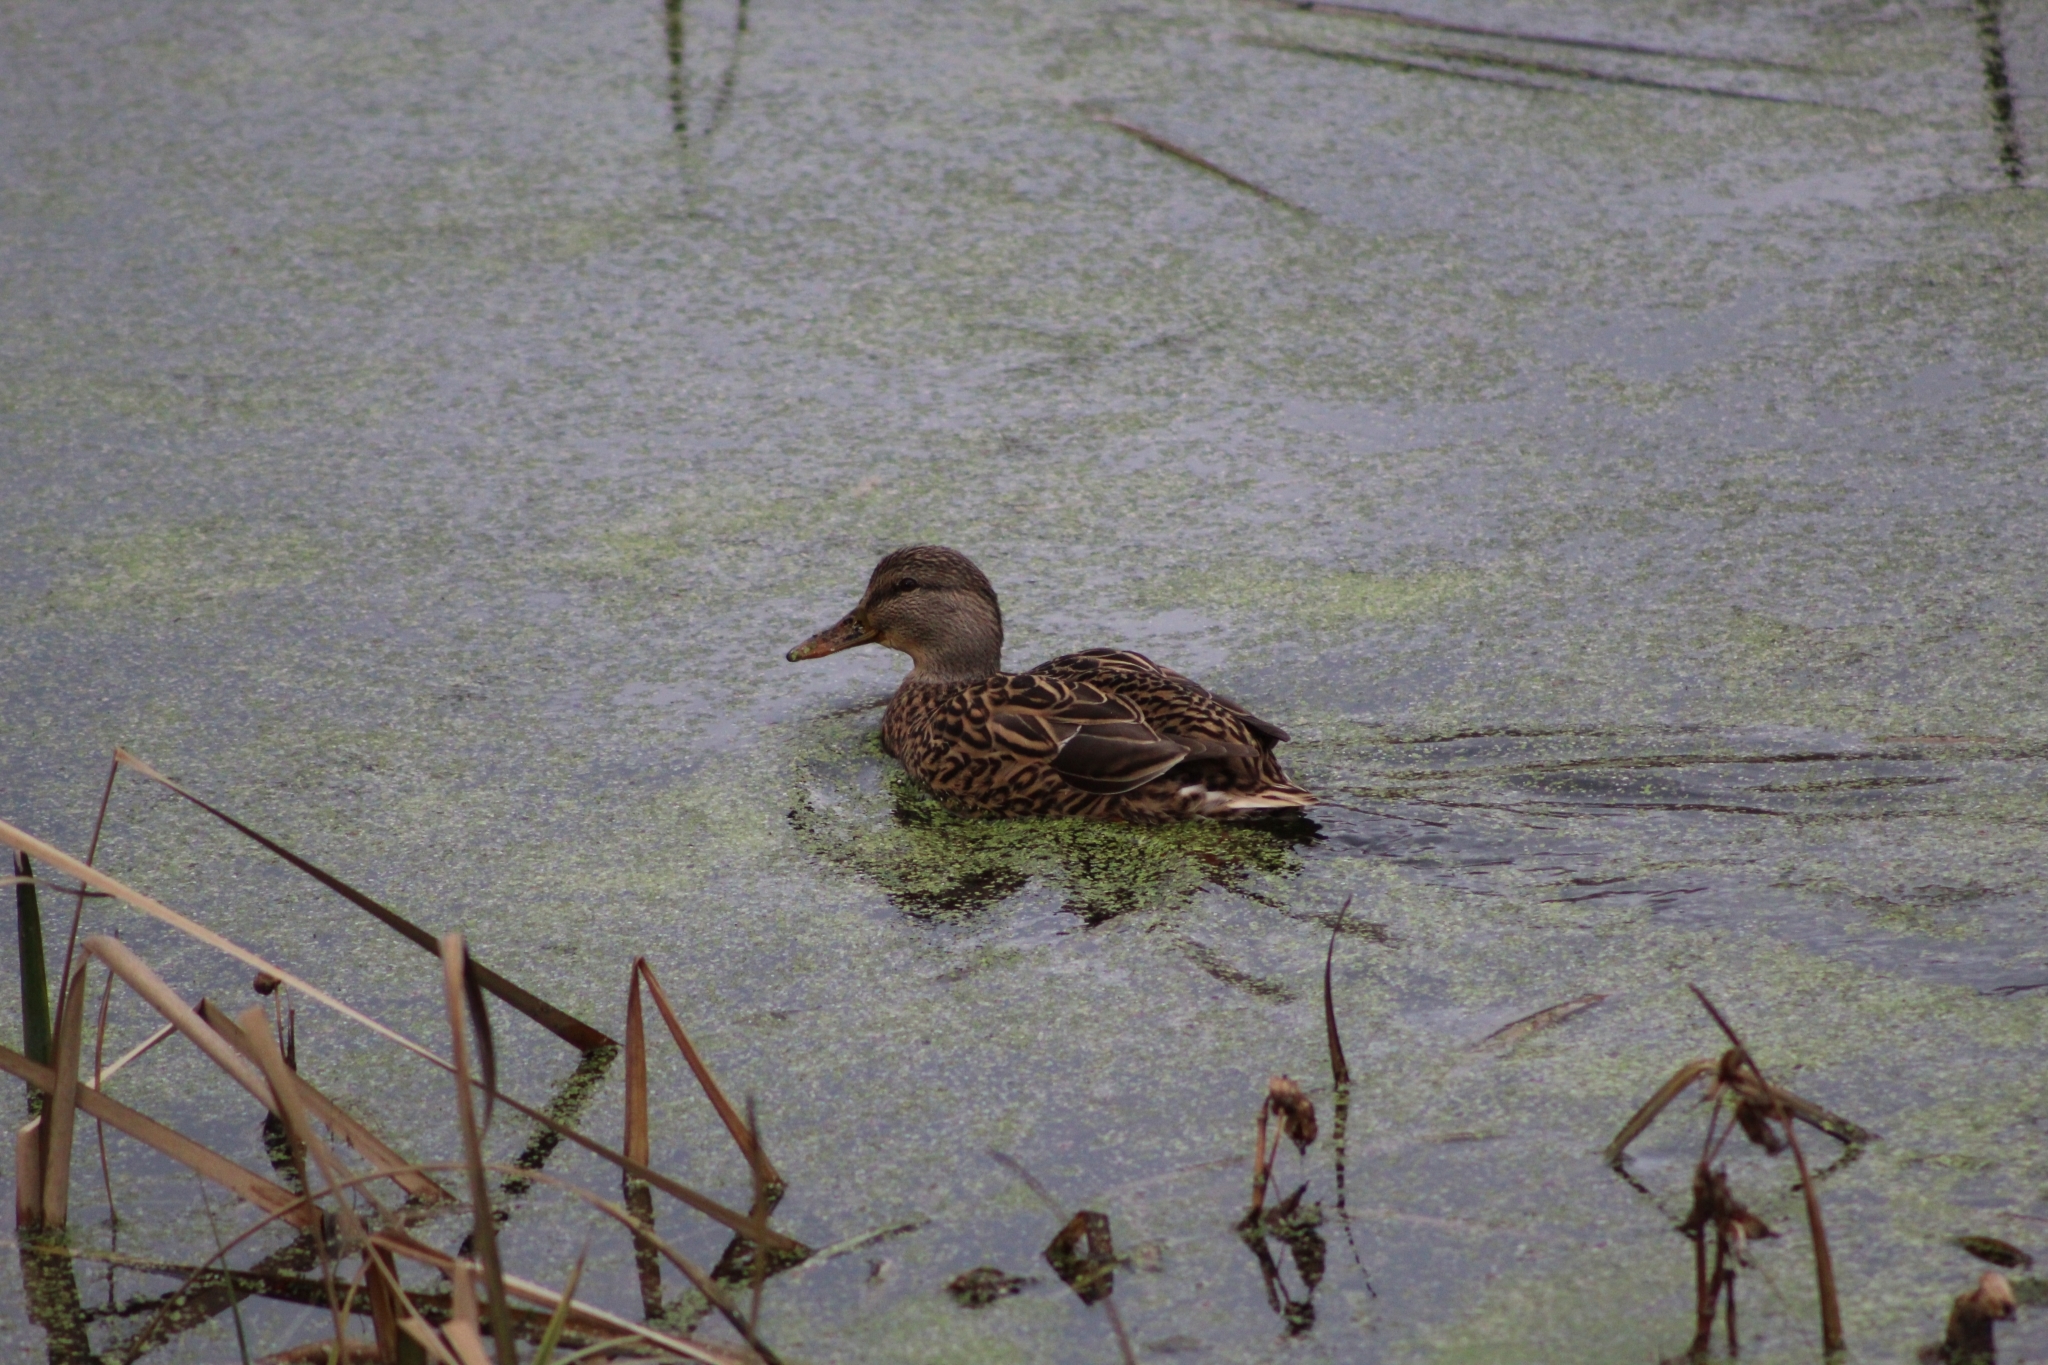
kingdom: Animalia
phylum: Chordata
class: Aves
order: Anseriformes
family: Anatidae
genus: Anas
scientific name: Anas platyrhynchos
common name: Mallard
